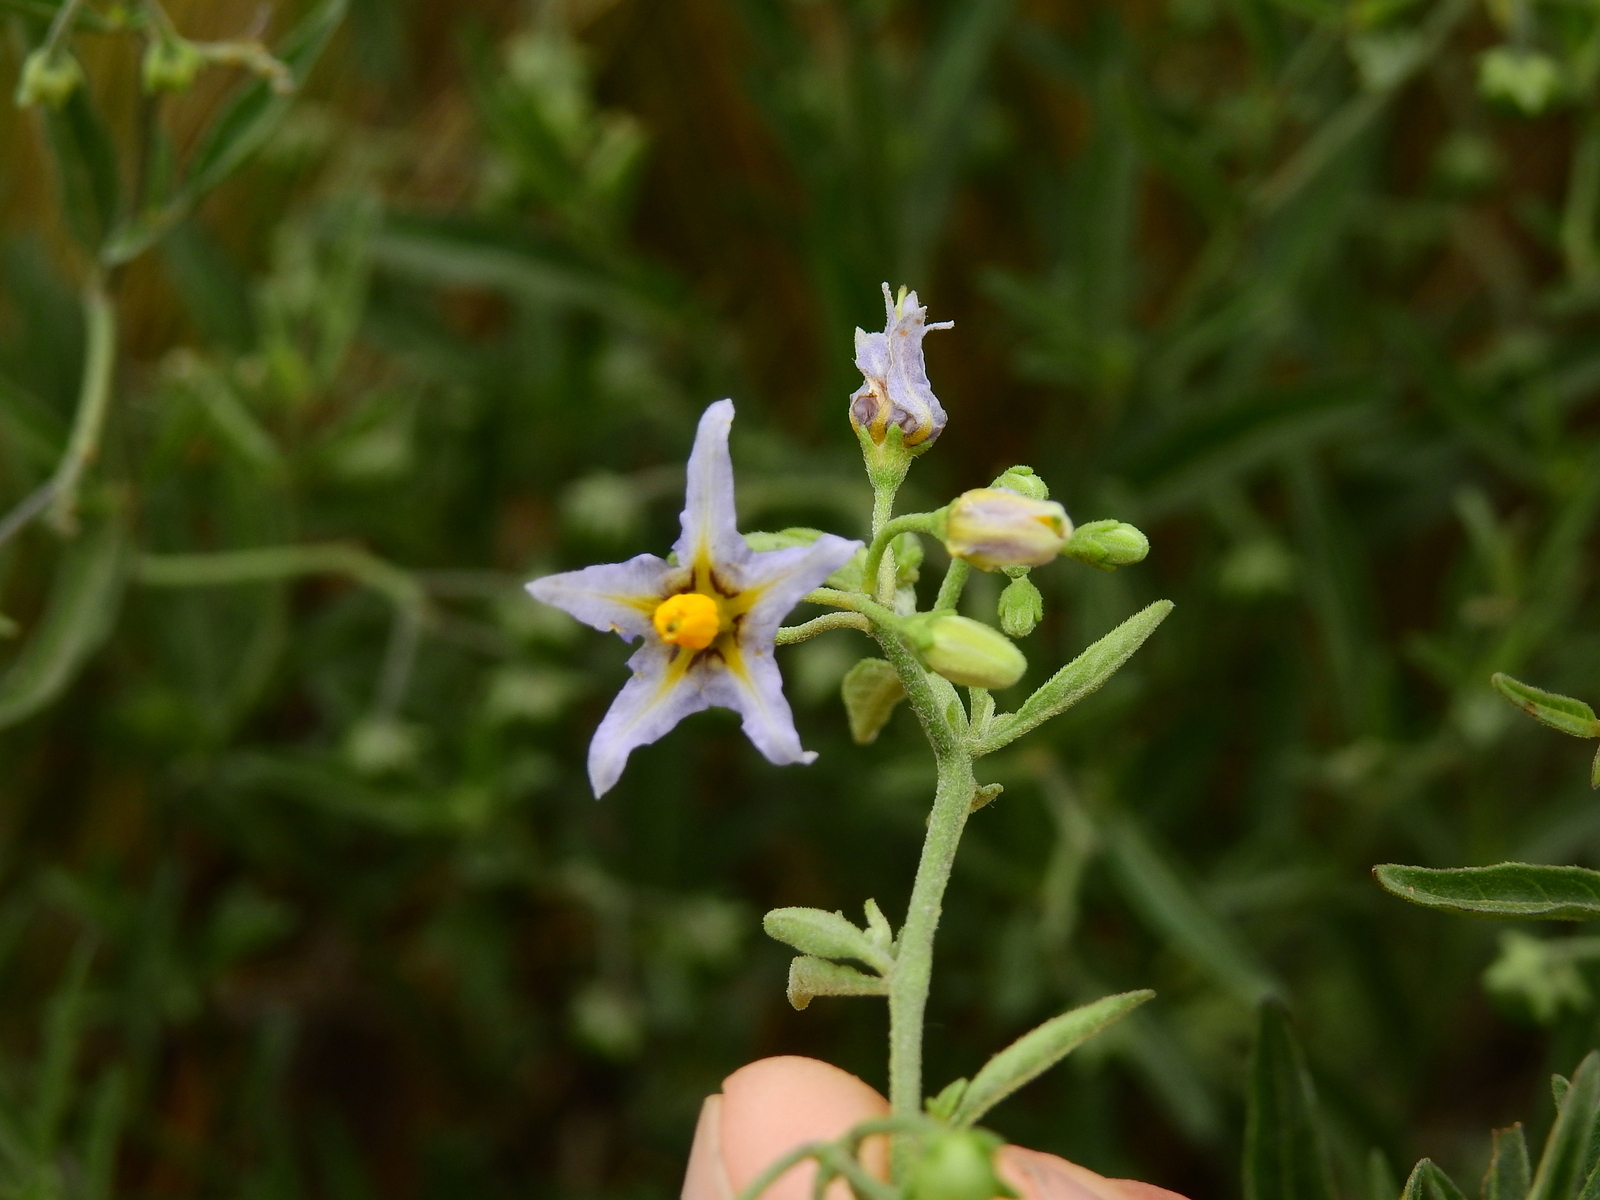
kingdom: Plantae
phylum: Tracheophyta
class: Magnoliopsida
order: Solanales
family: Solanaceae
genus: Solanum
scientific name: Solanum salicifolium
